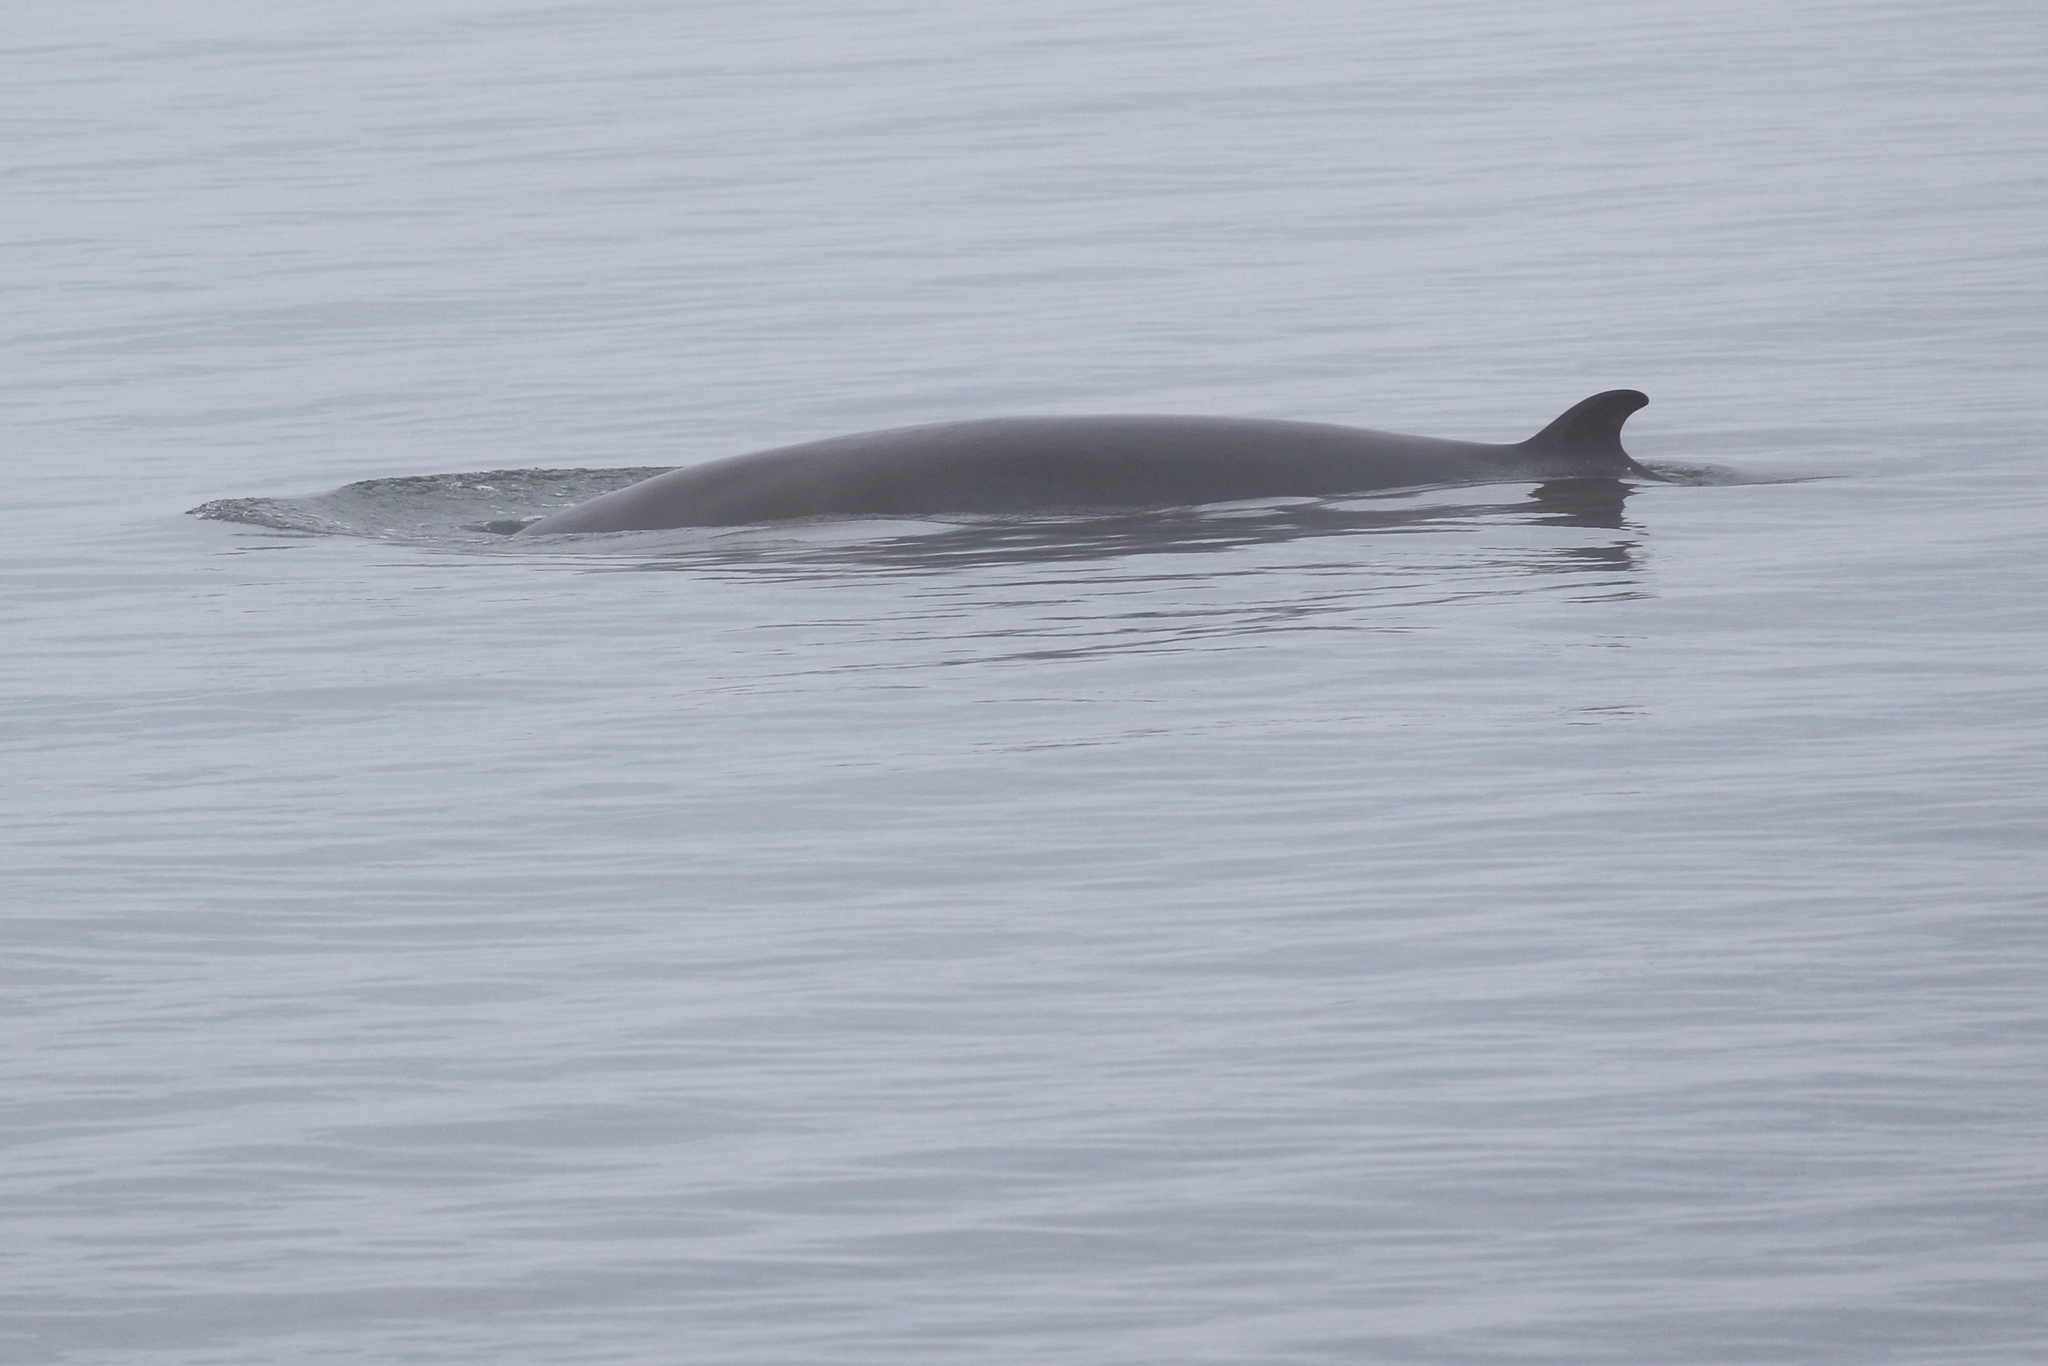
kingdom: Animalia
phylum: Chordata
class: Mammalia
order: Cetacea
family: Balaenopteridae
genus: Balaenoptera
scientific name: Balaenoptera acutorostrata
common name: Common minke whale
